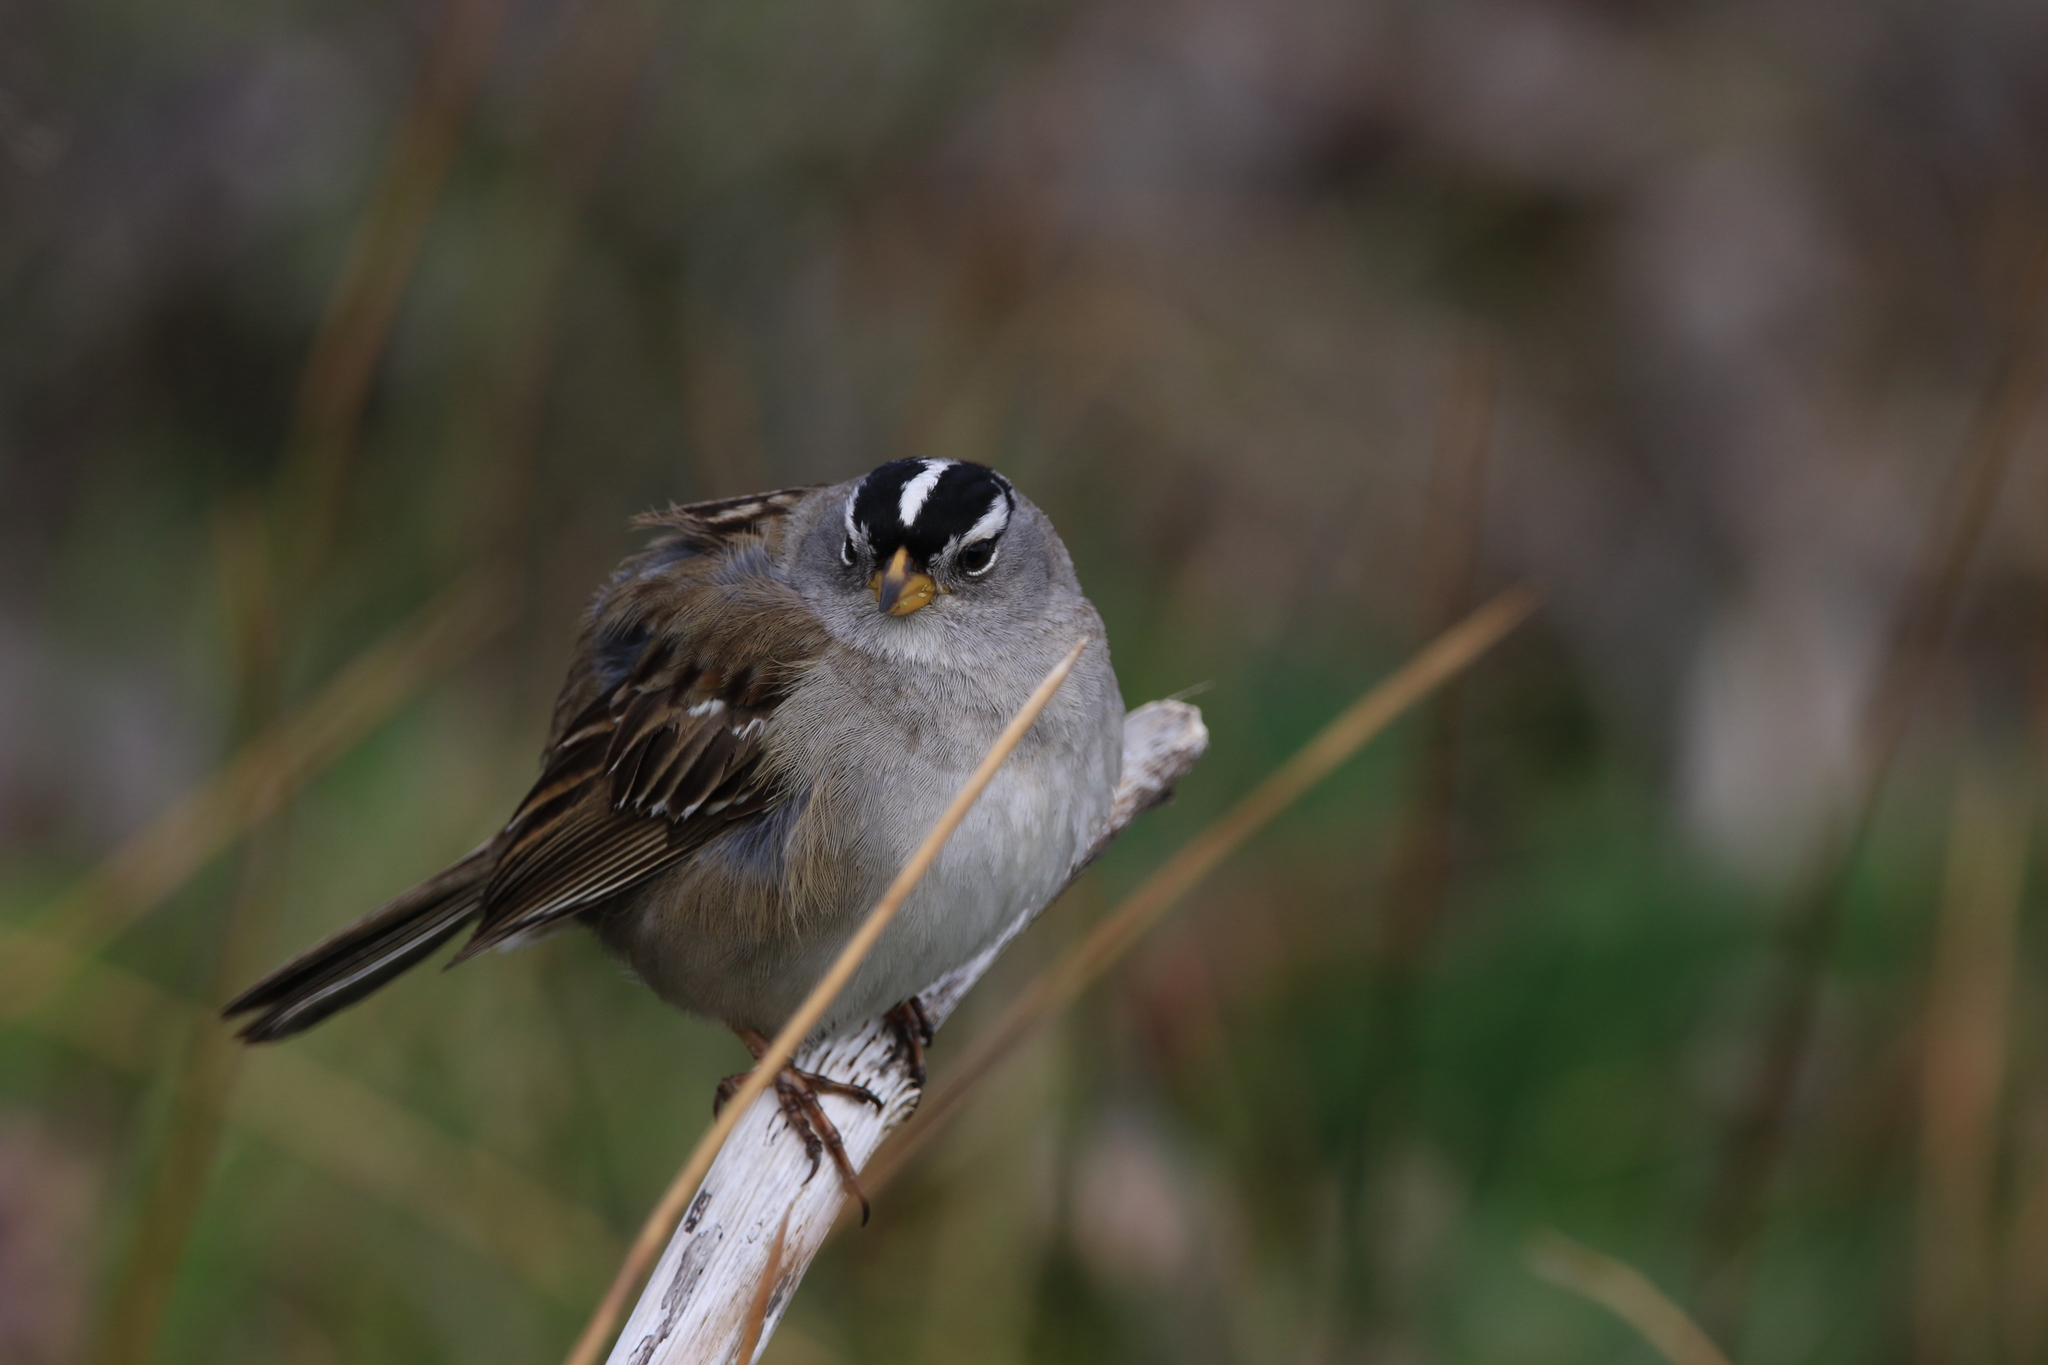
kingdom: Animalia
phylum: Chordata
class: Aves
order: Passeriformes
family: Passerellidae
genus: Zonotrichia
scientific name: Zonotrichia leucophrys
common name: White-crowned sparrow
